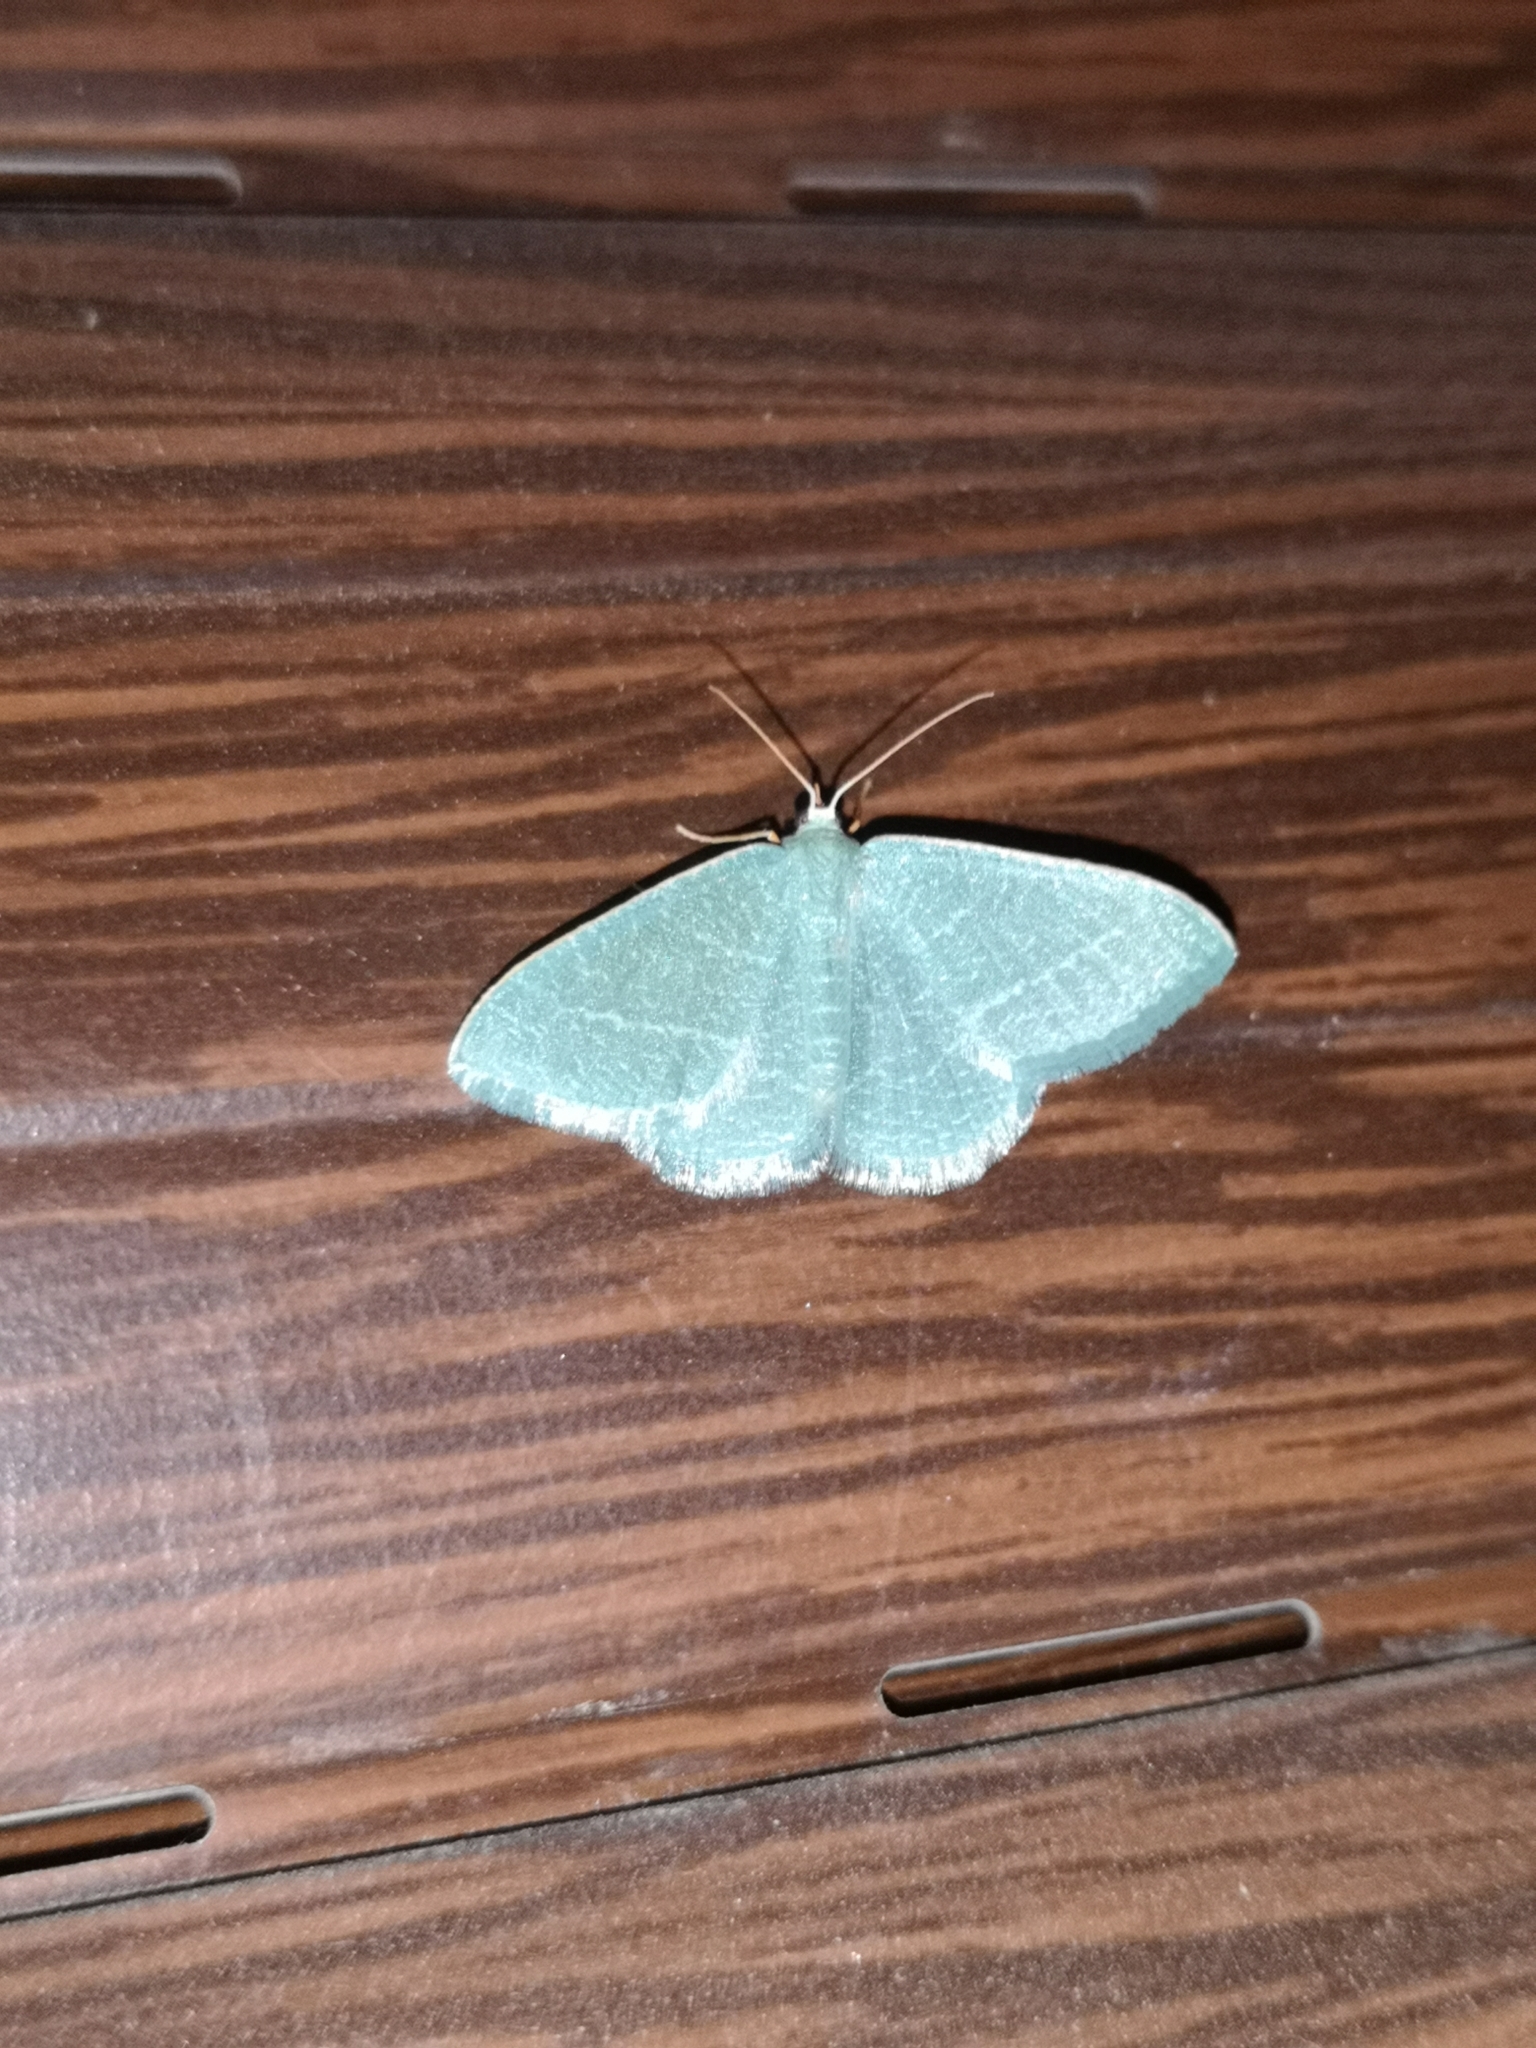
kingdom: Animalia
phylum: Arthropoda
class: Insecta
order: Lepidoptera
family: Geometridae
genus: Chlorissa
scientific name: Chlorissa etruscaria
